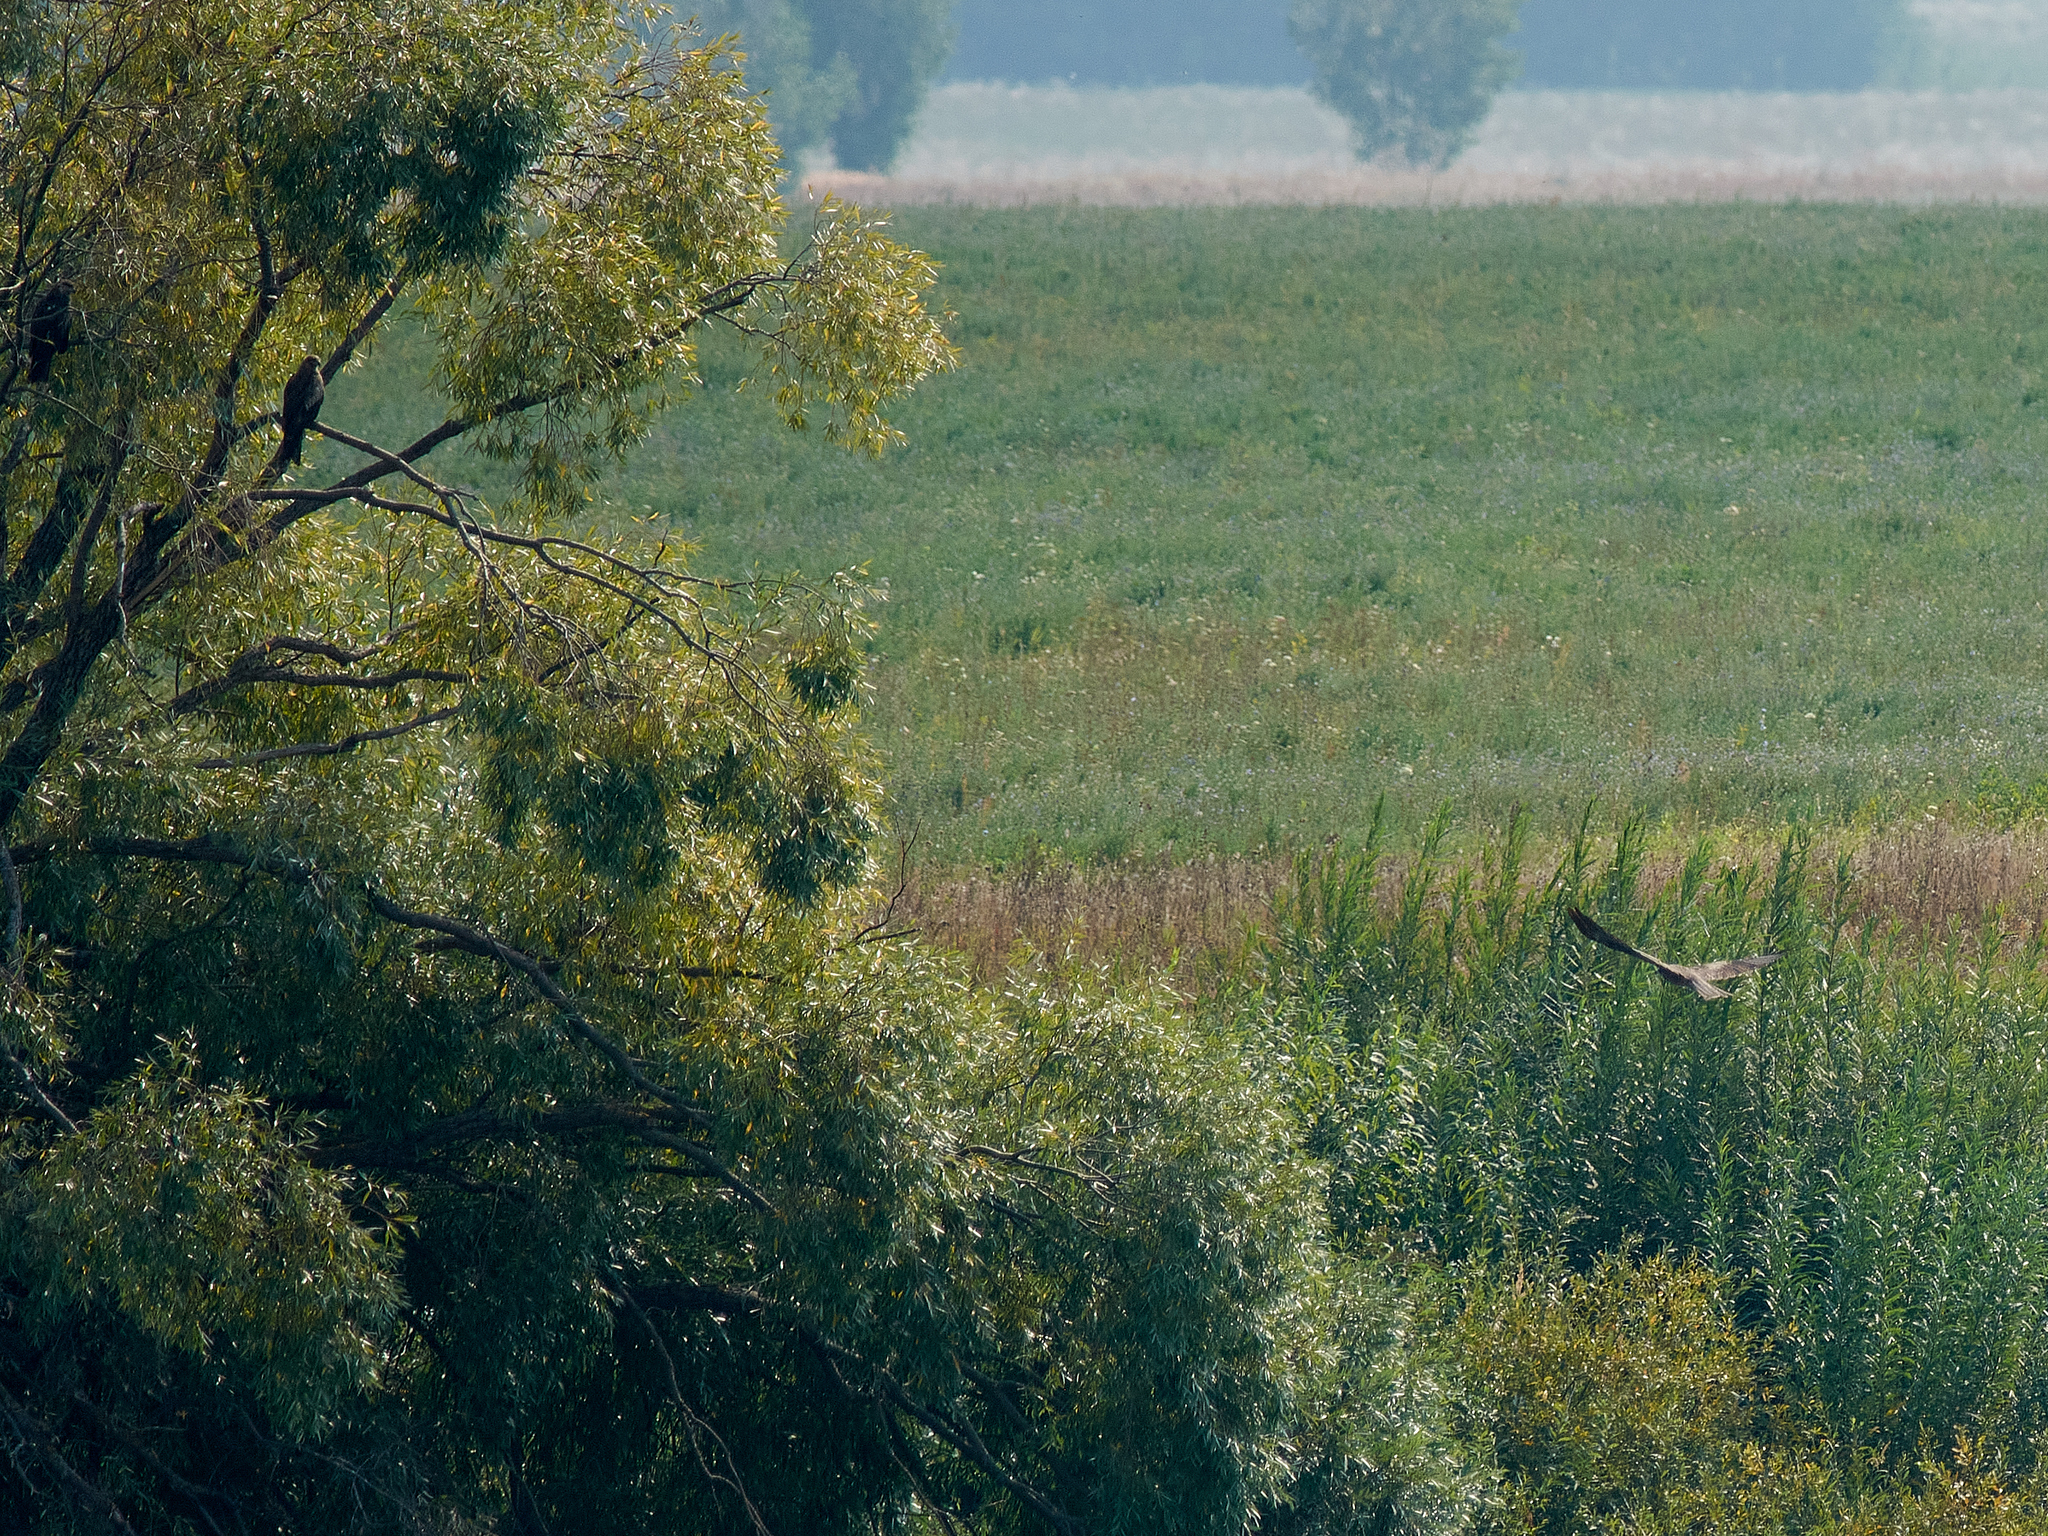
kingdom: Animalia
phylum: Chordata
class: Aves
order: Accipitriformes
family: Accipitridae
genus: Milvus
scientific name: Milvus migrans
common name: Black kite
